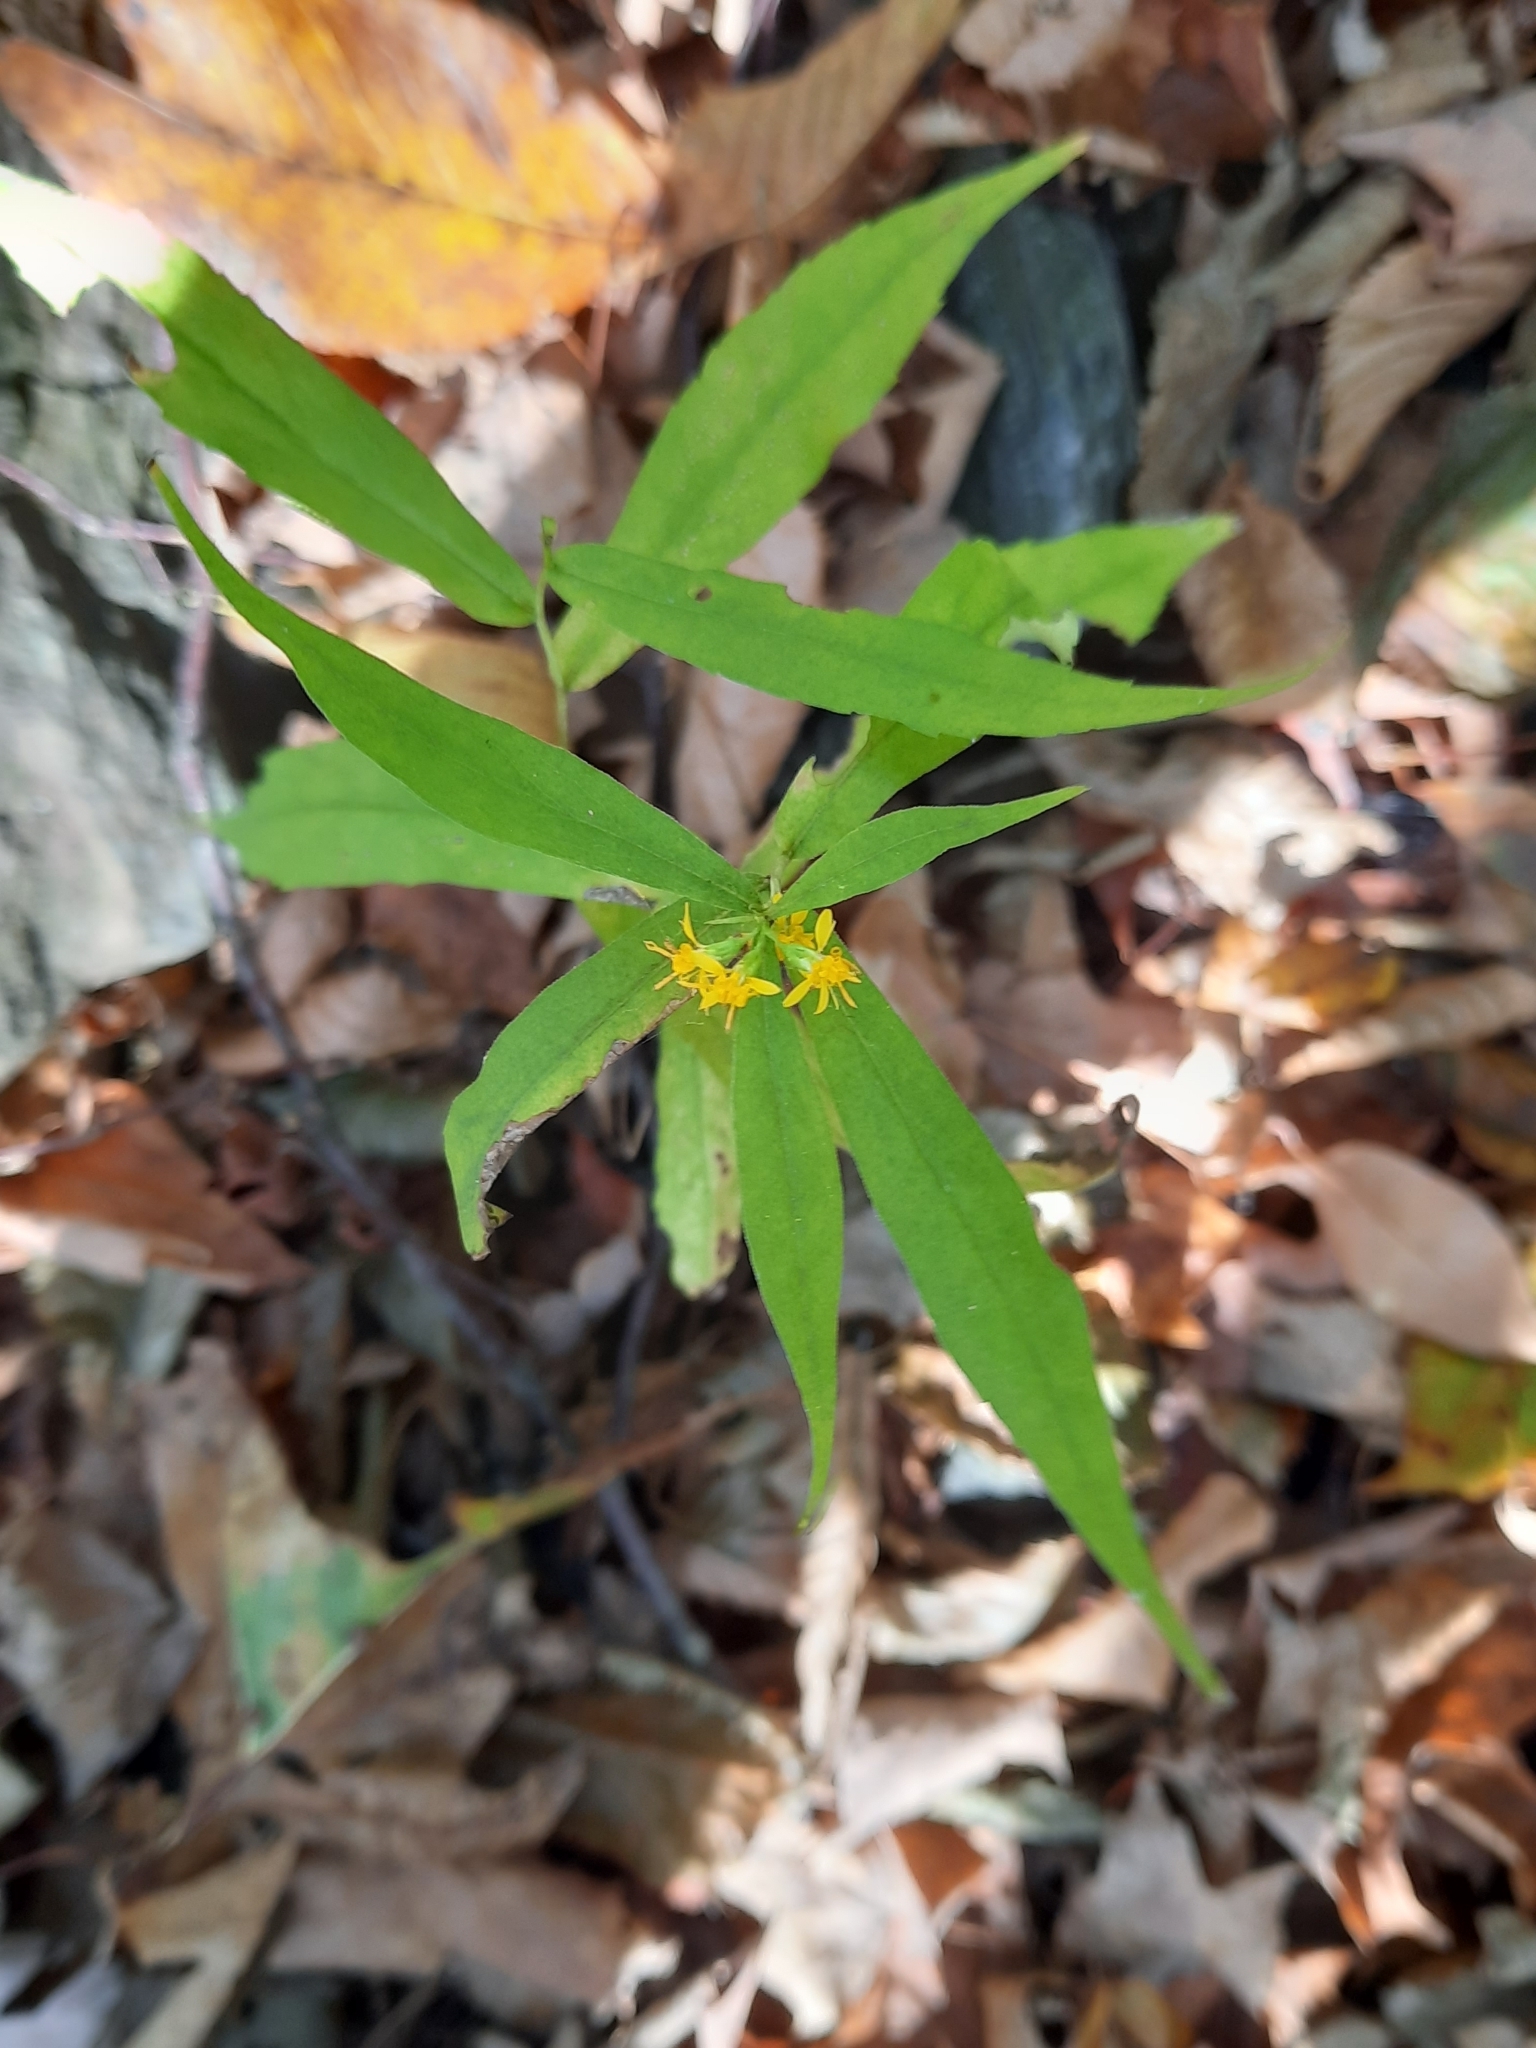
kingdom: Plantae
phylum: Tracheophyta
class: Magnoliopsida
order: Asterales
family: Asteraceae
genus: Solidago
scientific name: Solidago caesia
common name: Woodland goldenrod
